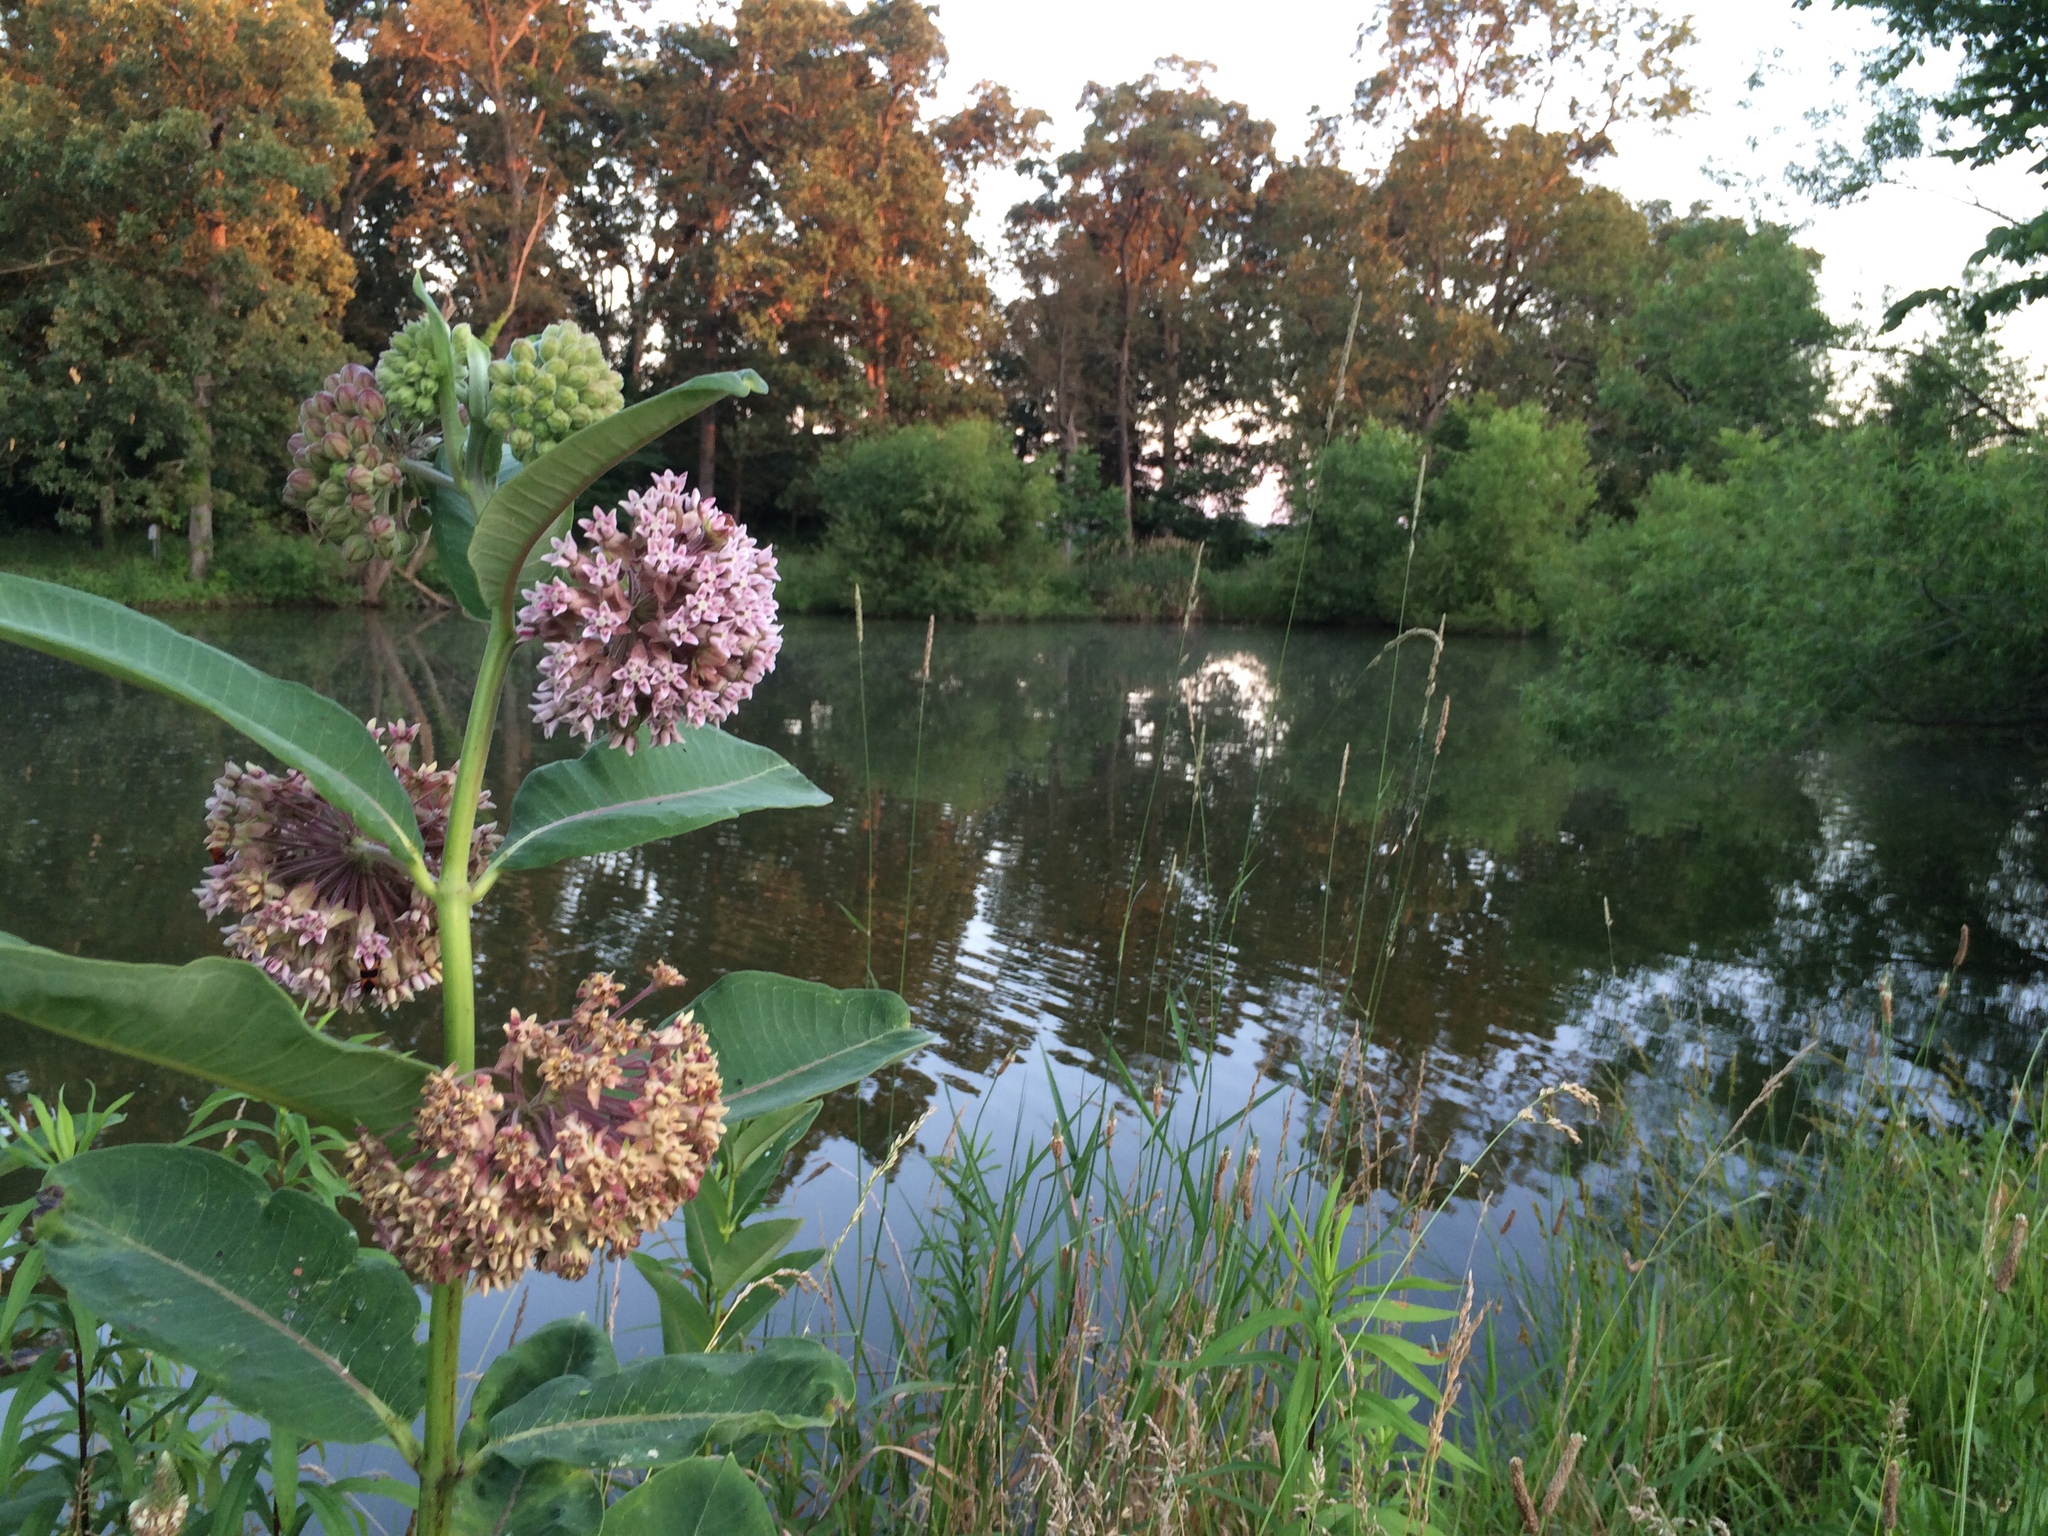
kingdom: Plantae
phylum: Tracheophyta
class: Magnoliopsida
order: Gentianales
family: Apocynaceae
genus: Asclepias
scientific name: Asclepias syriaca
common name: Common milkweed
